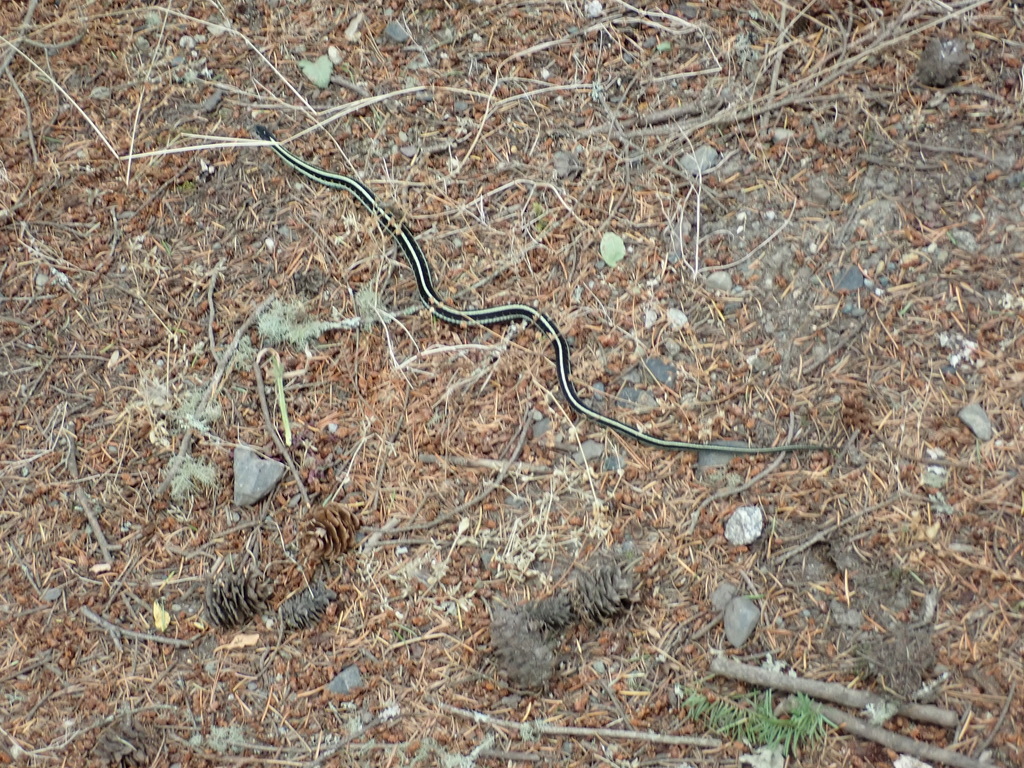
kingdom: Animalia
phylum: Chordata
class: Squamata
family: Colubridae
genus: Thamnophis
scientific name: Thamnophis sirtalis
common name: Common garter snake
